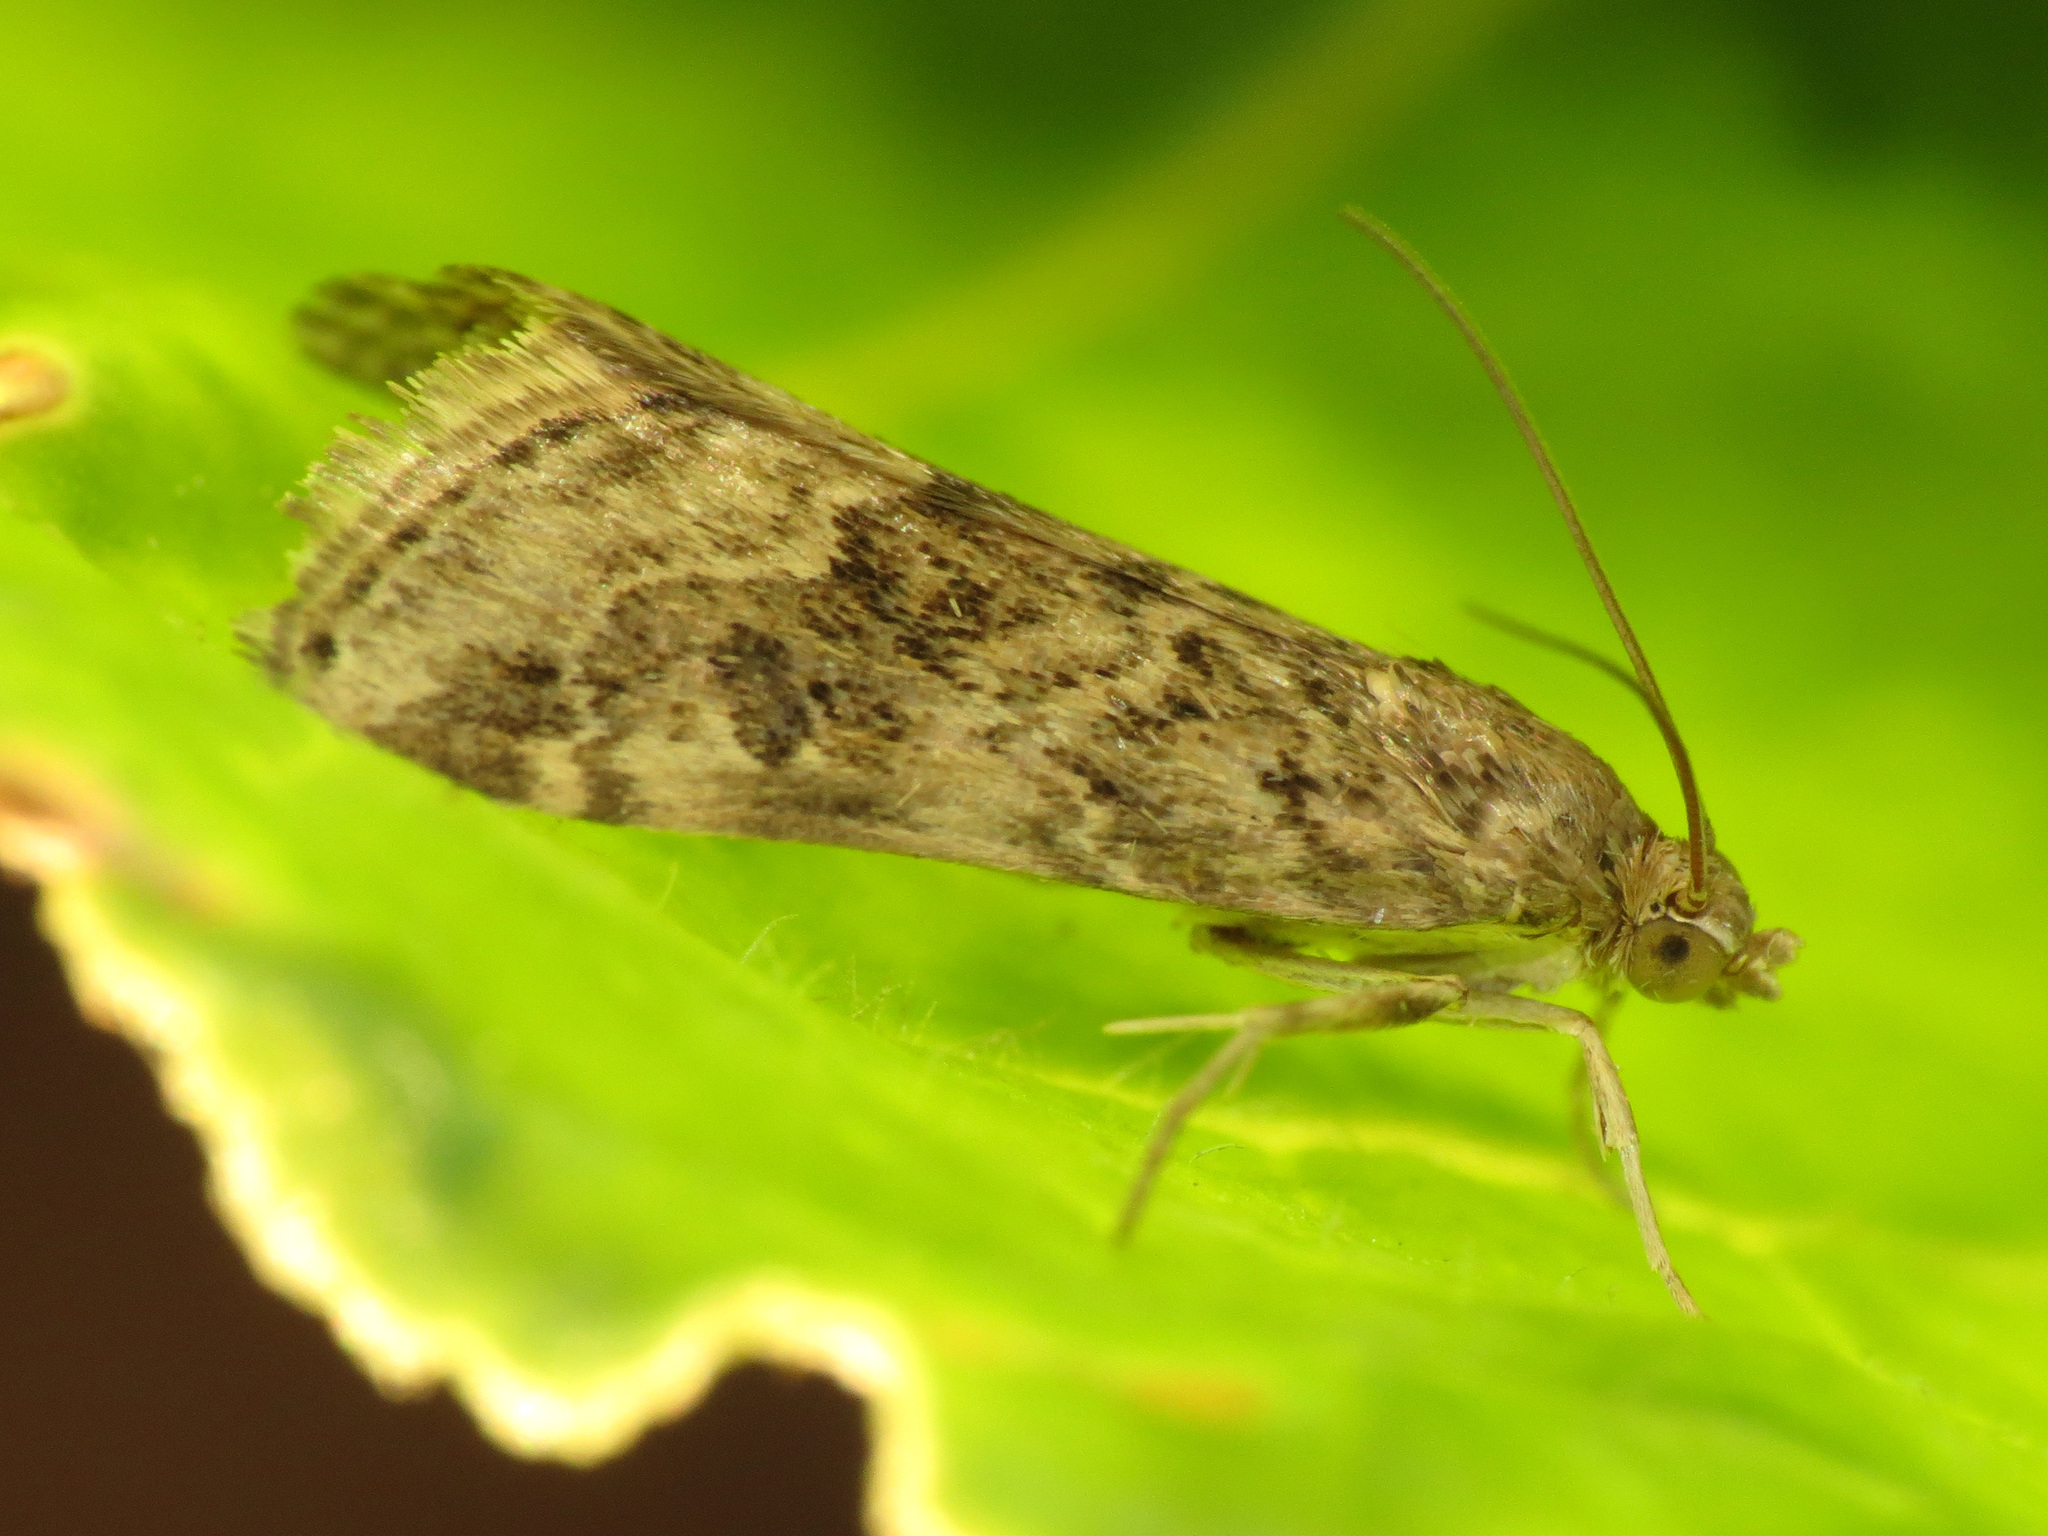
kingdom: Animalia
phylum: Arthropoda
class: Insecta
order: Lepidoptera
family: Crambidae
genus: Nomophila
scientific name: Nomophila noctuella
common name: Rush veneer
